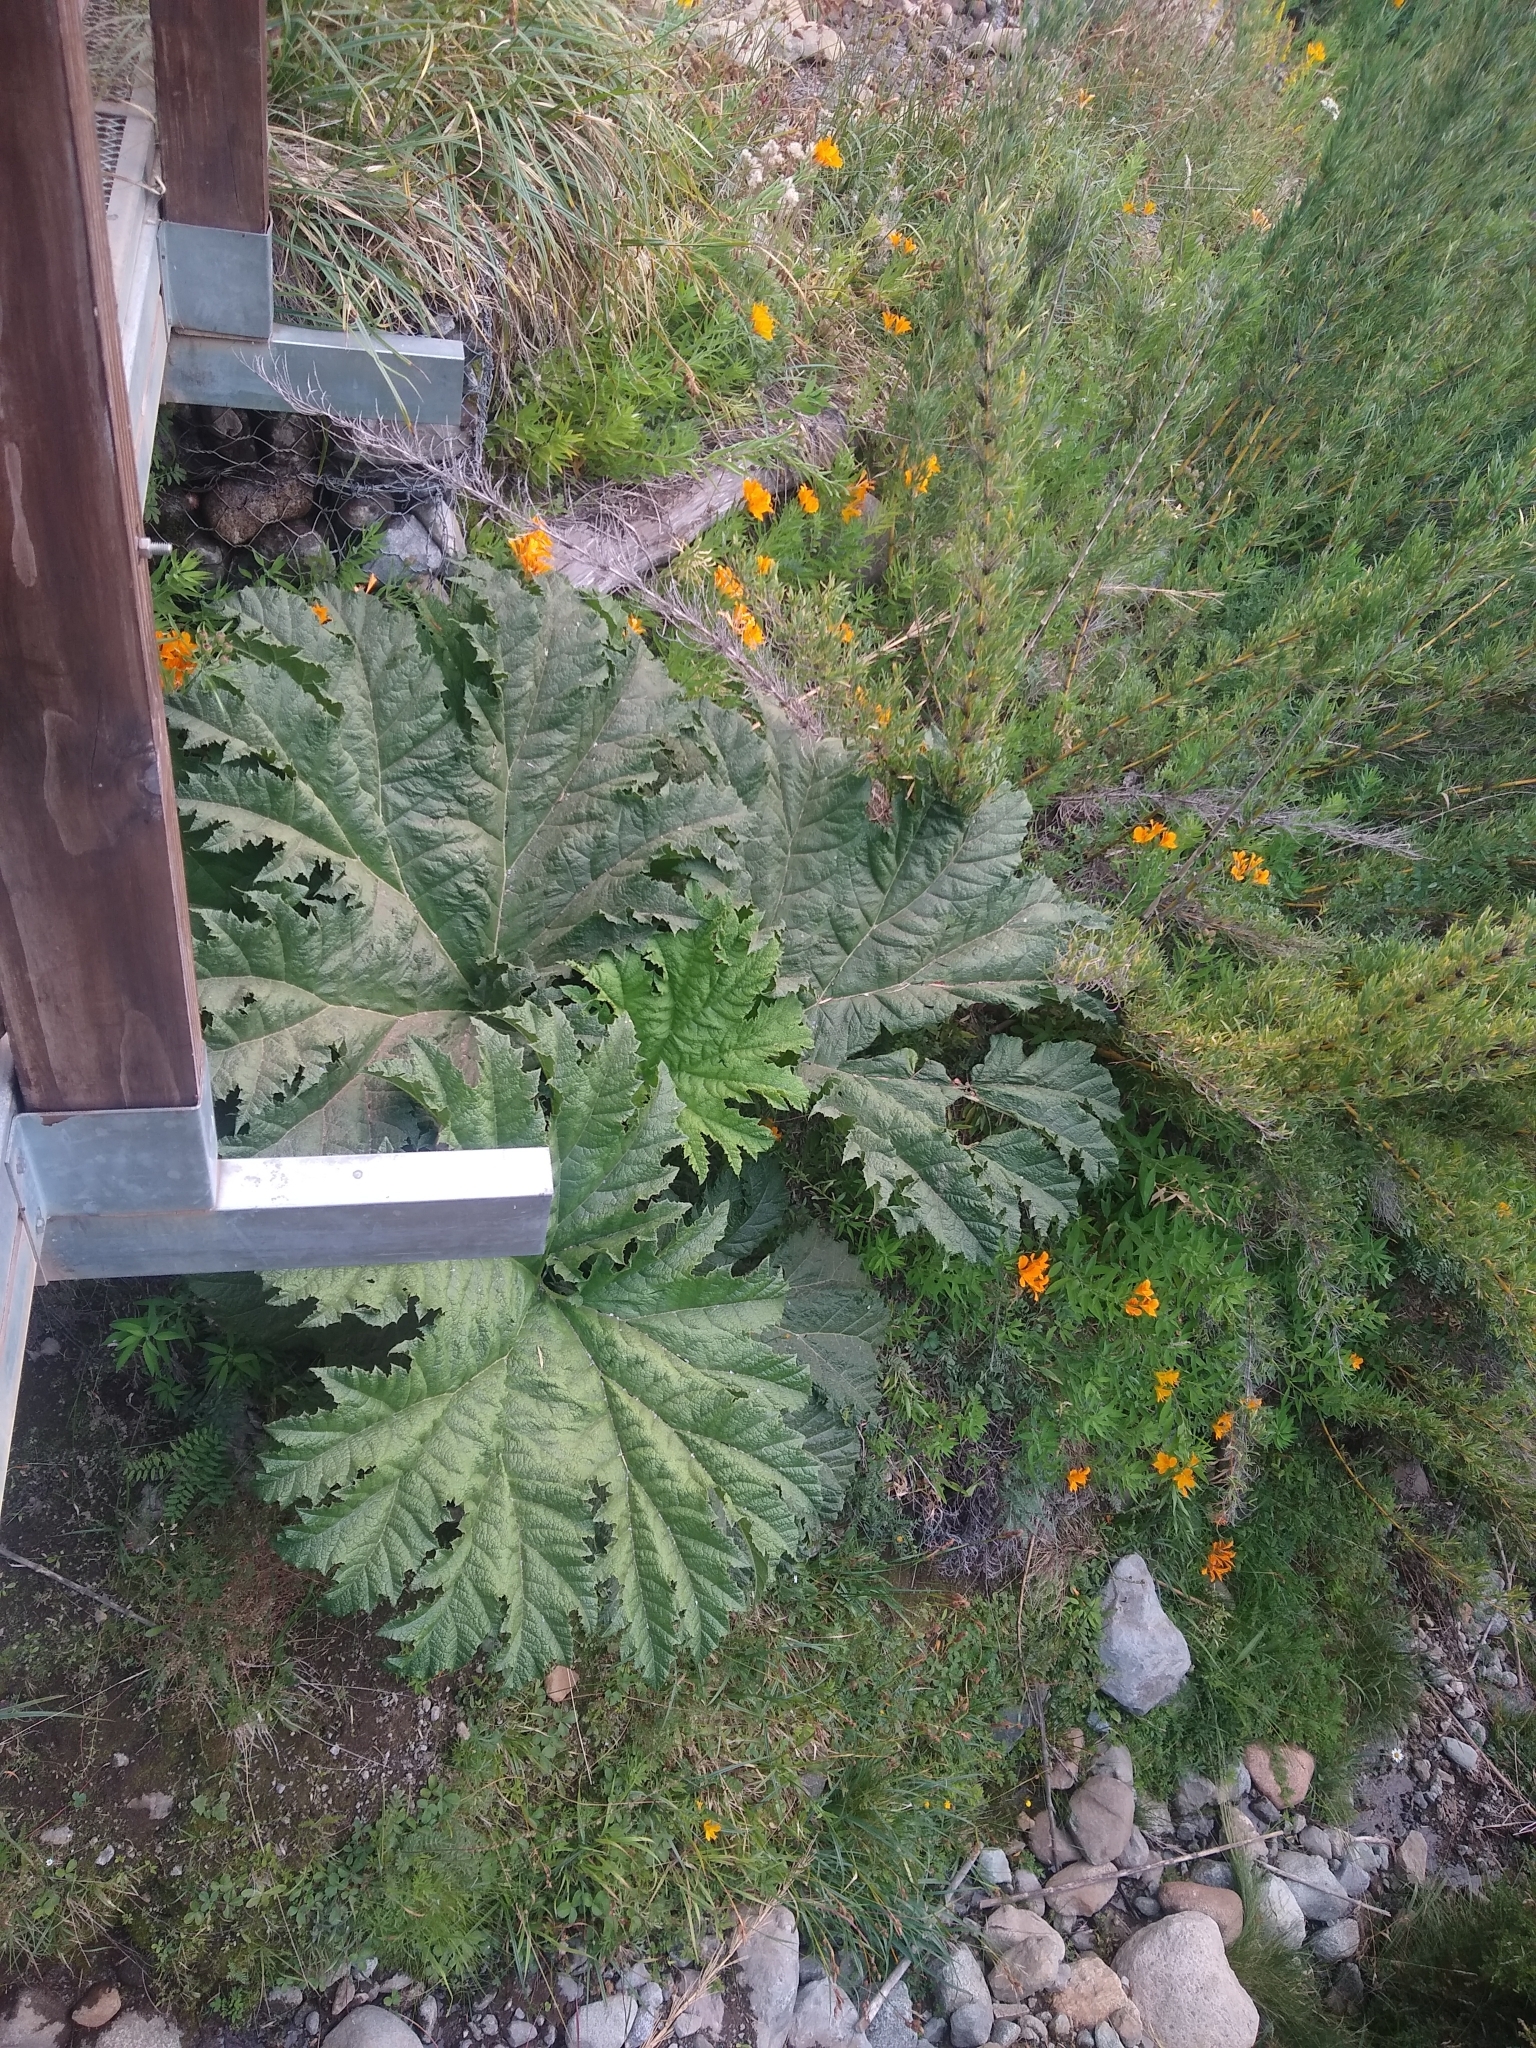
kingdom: Plantae
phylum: Tracheophyta
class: Magnoliopsida
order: Gunnerales
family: Gunneraceae
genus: Gunnera
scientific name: Gunnera tinctoria
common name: Giant-rhubarb
